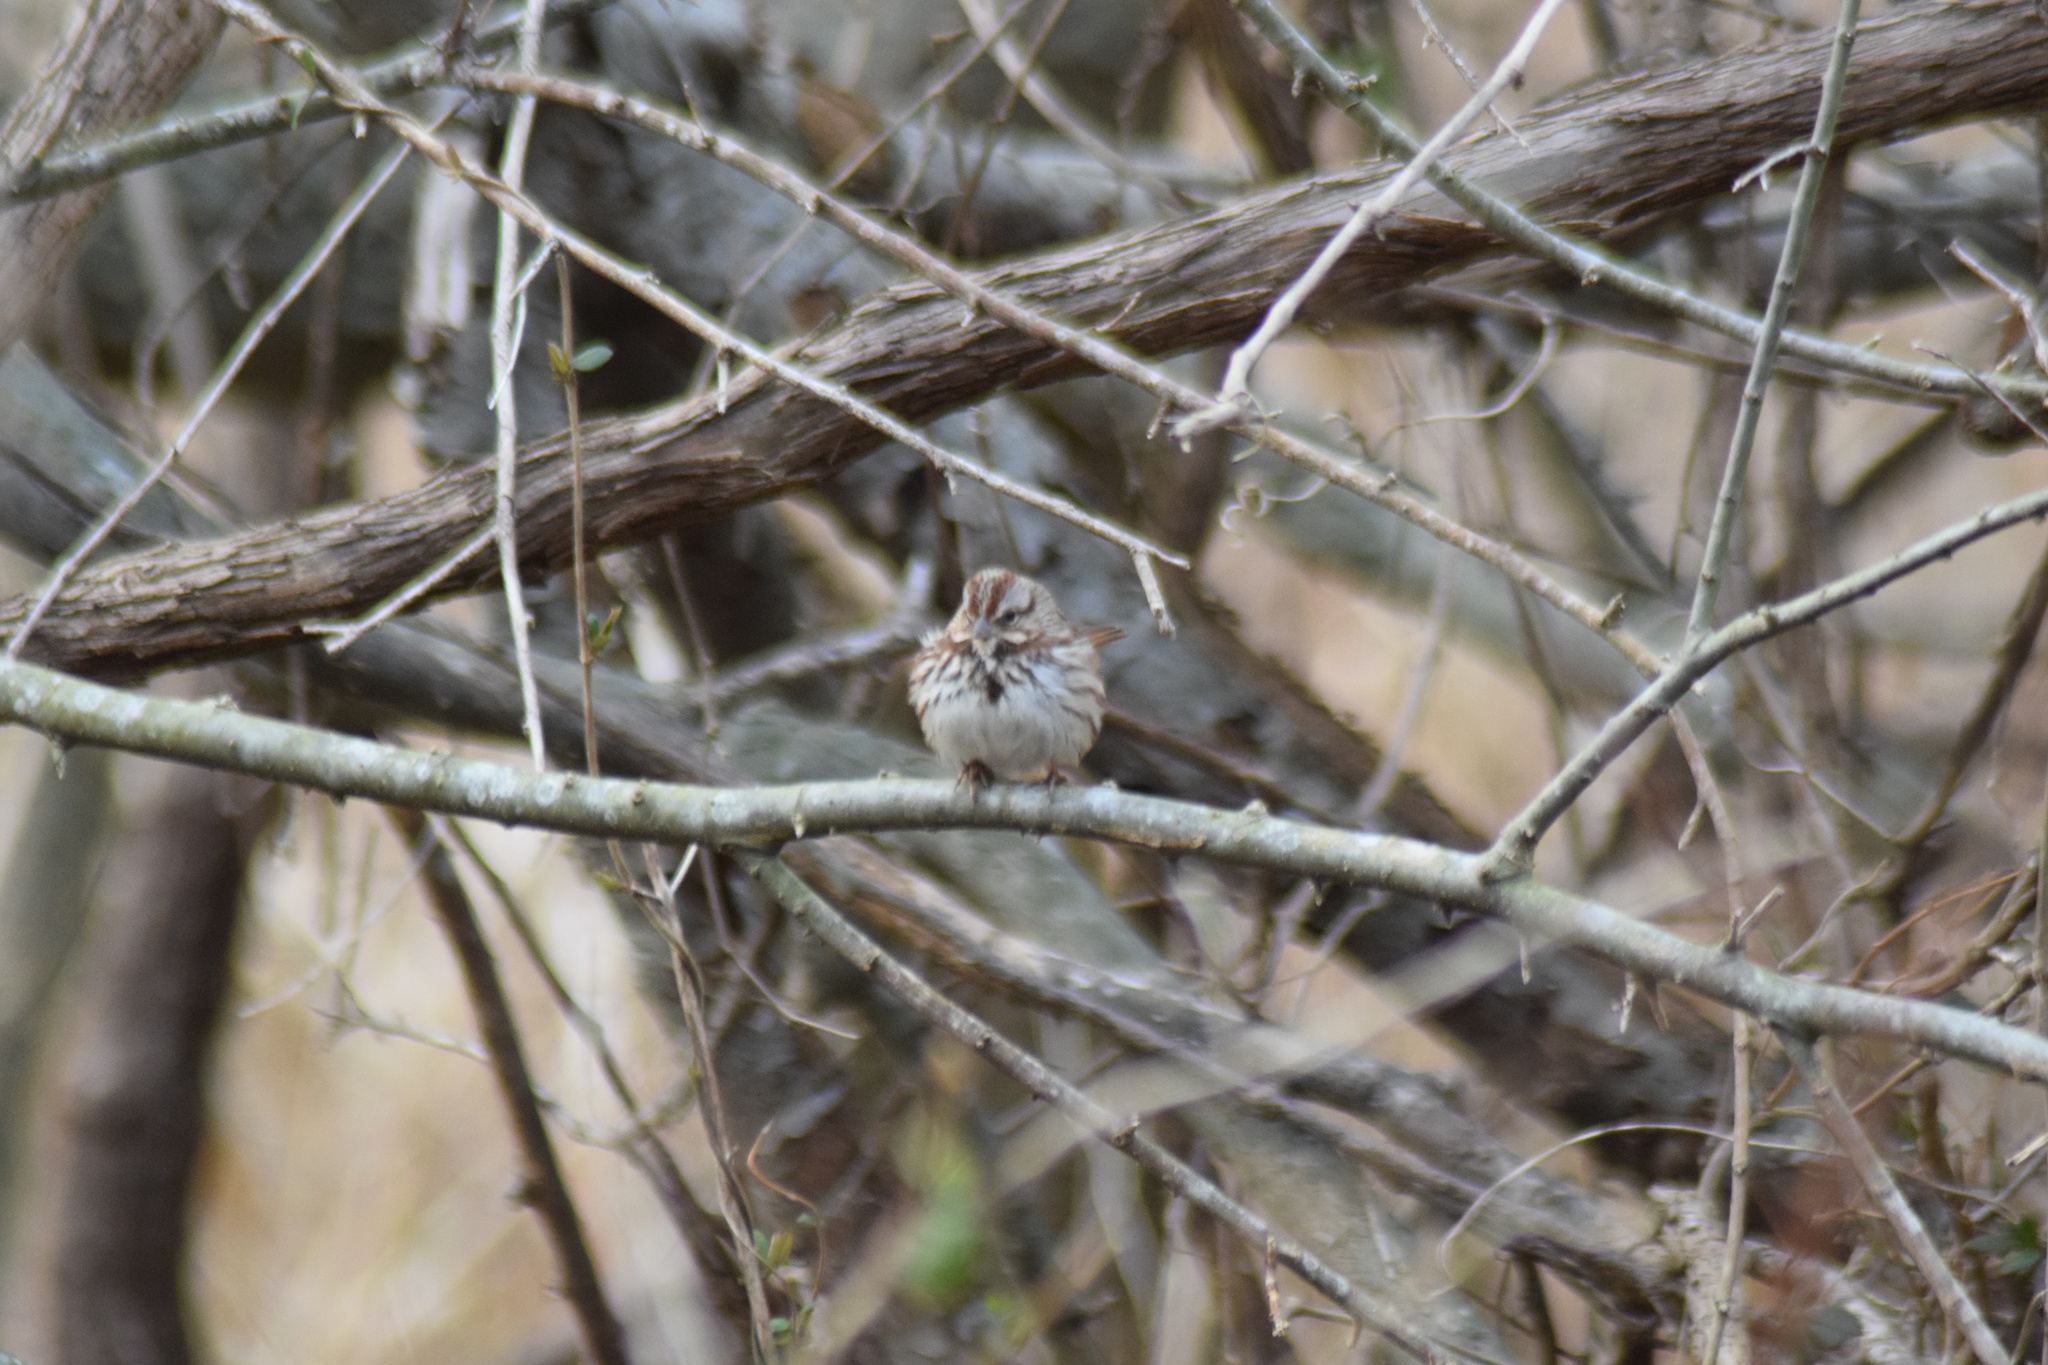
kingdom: Animalia
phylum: Chordata
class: Aves
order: Passeriformes
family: Passerellidae
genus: Melospiza
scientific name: Melospiza melodia
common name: Song sparrow
